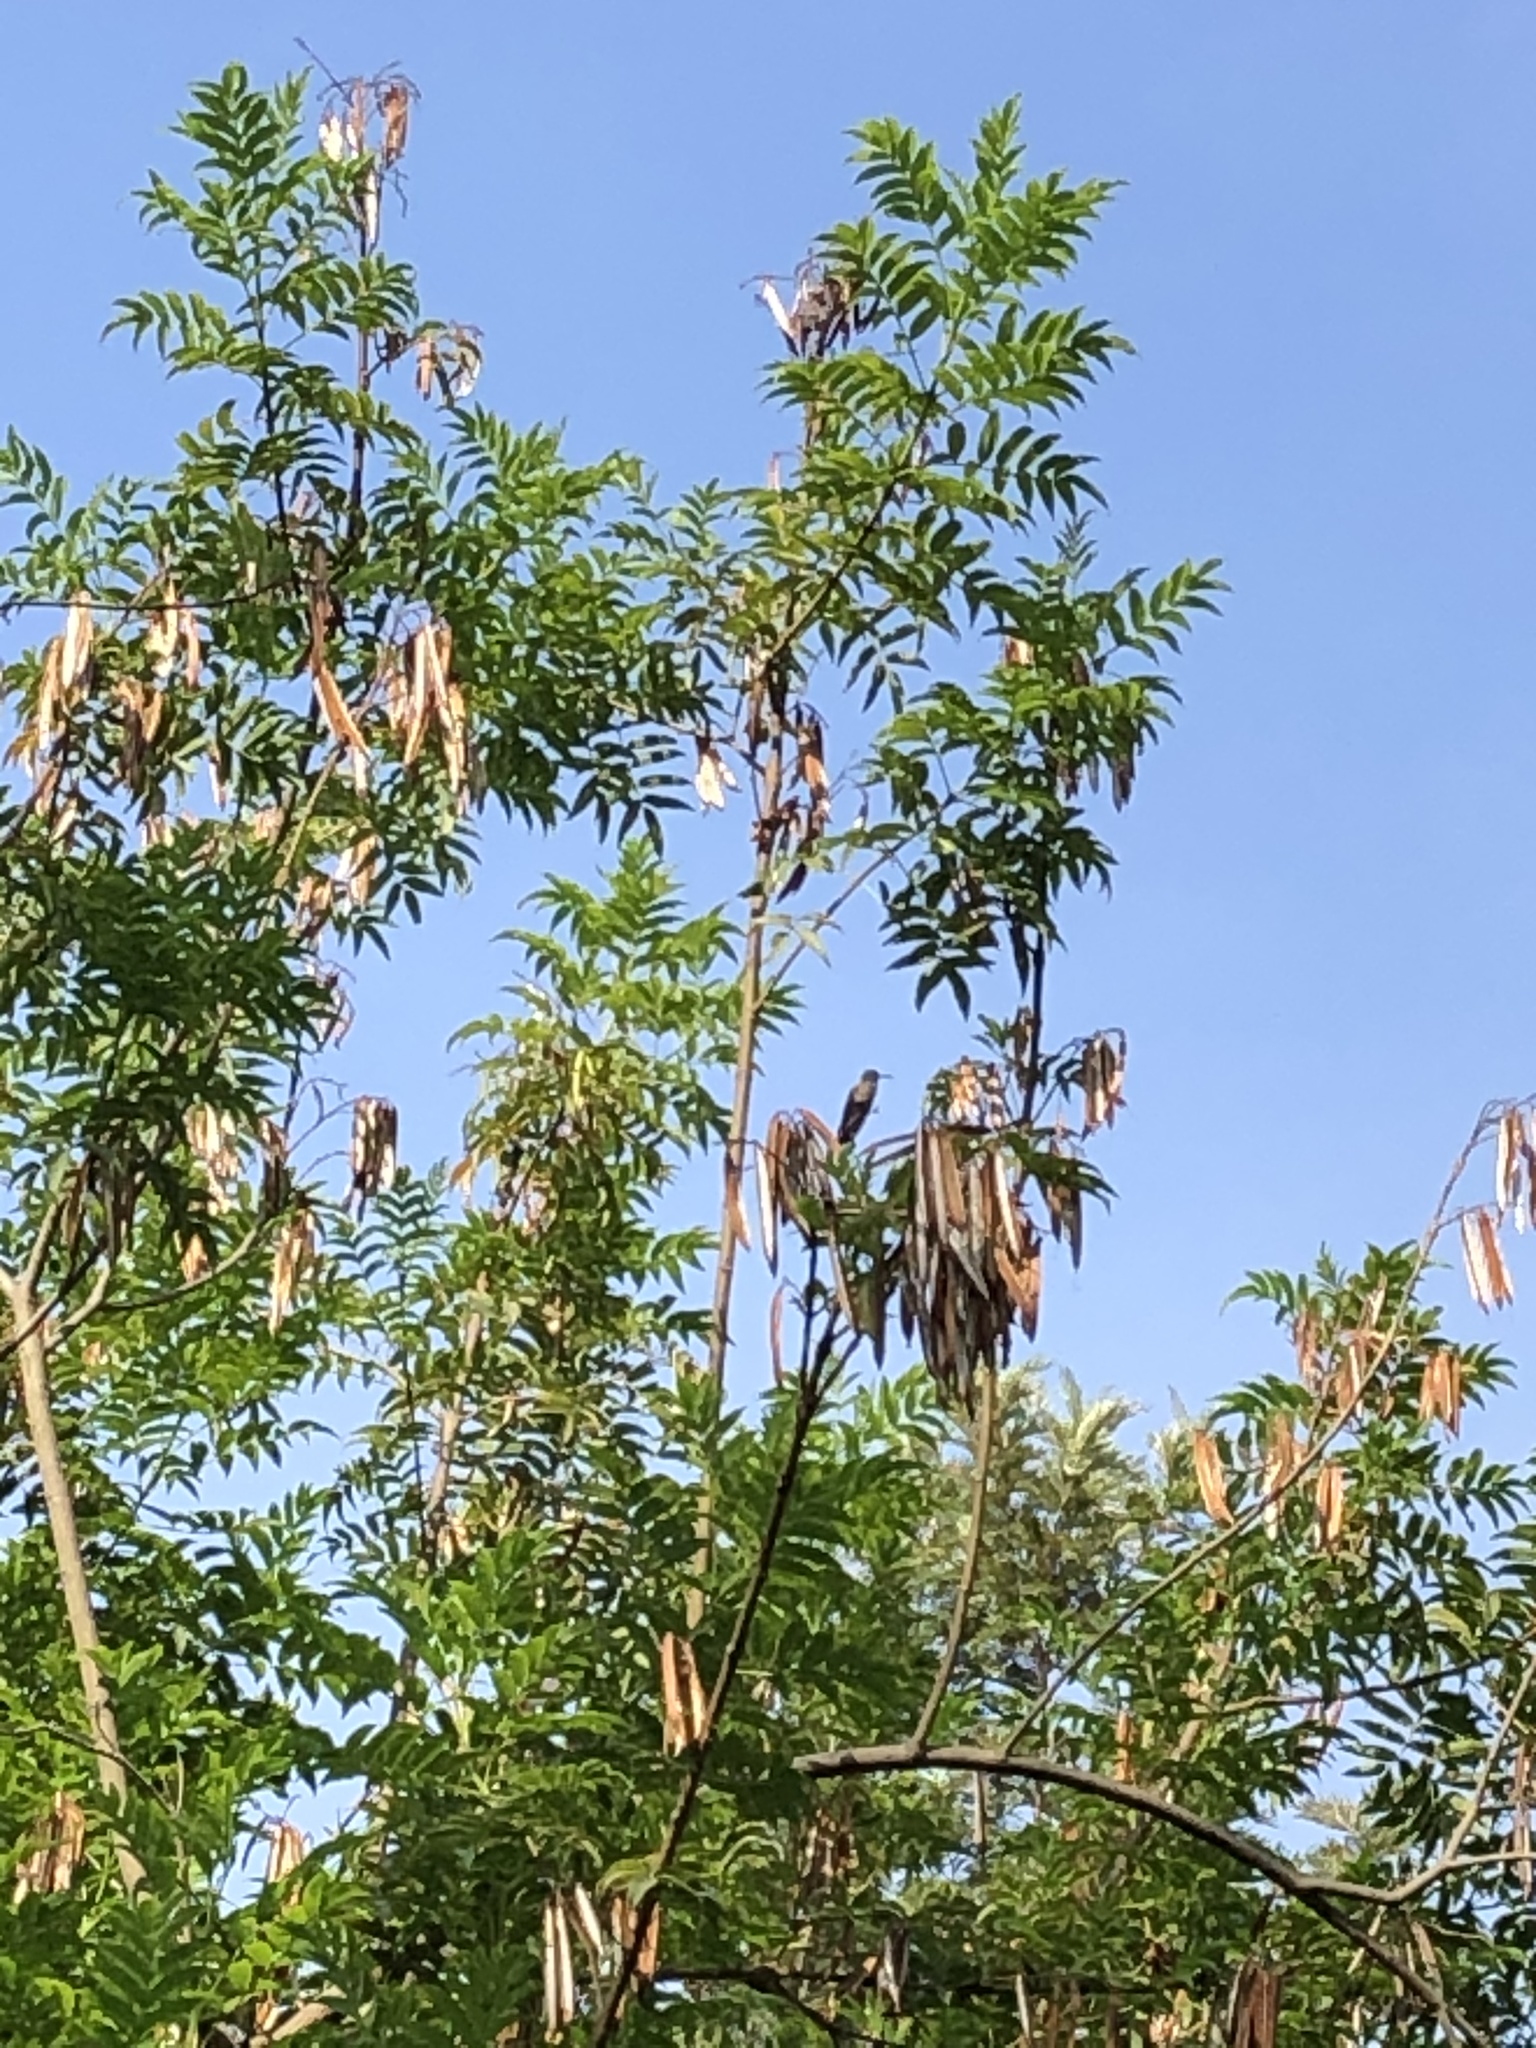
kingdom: Animalia
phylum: Chordata
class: Aves
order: Apodiformes
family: Trochilidae
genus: Amazilis
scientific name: Amazilis amazilia
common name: Amazilia hummingbird
